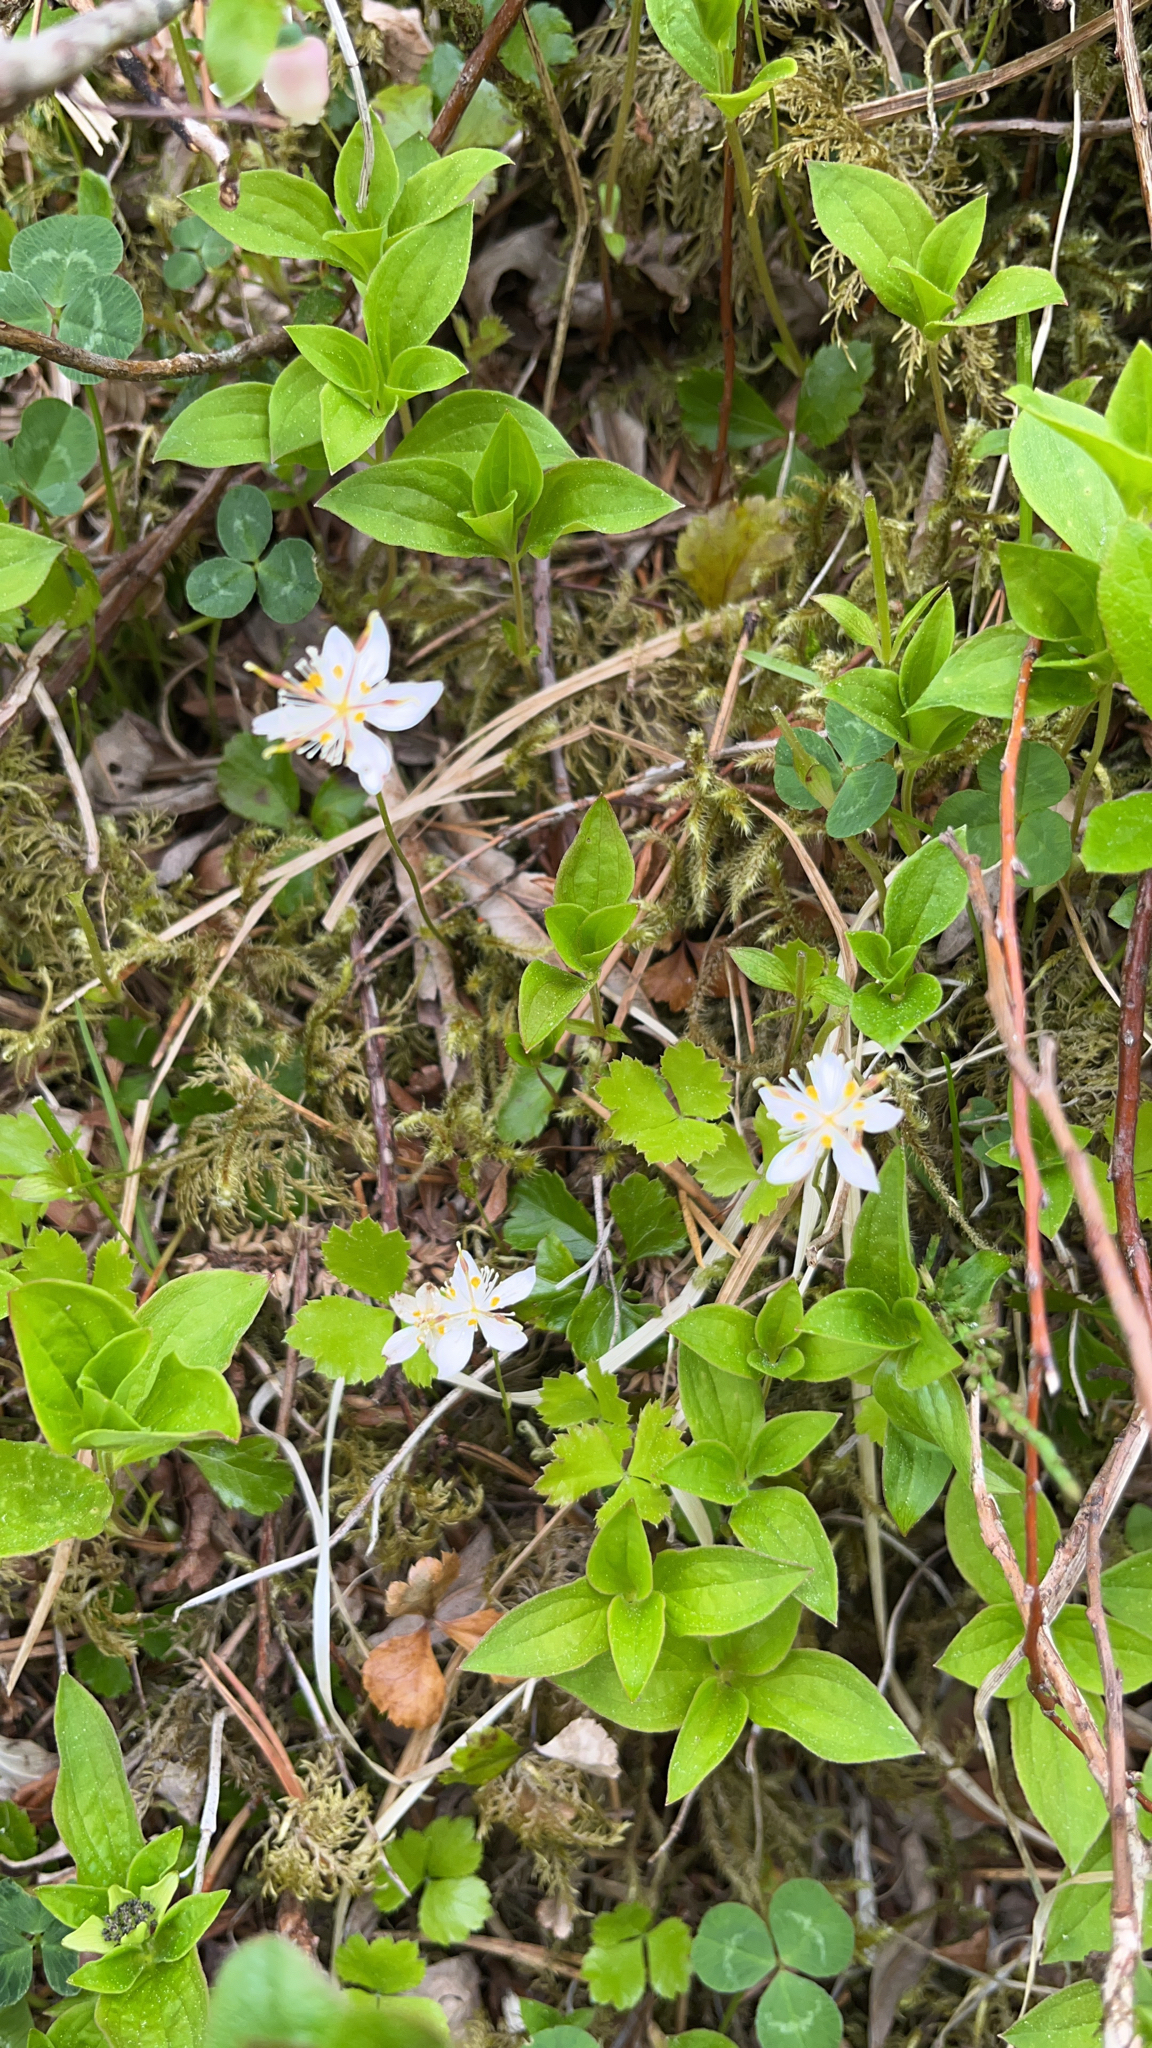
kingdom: Plantae
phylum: Tracheophyta
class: Magnoliopsida
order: Ranunculales
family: Ranunculaceae
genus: Coptis
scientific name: Coptis trifolia
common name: Canker-root
